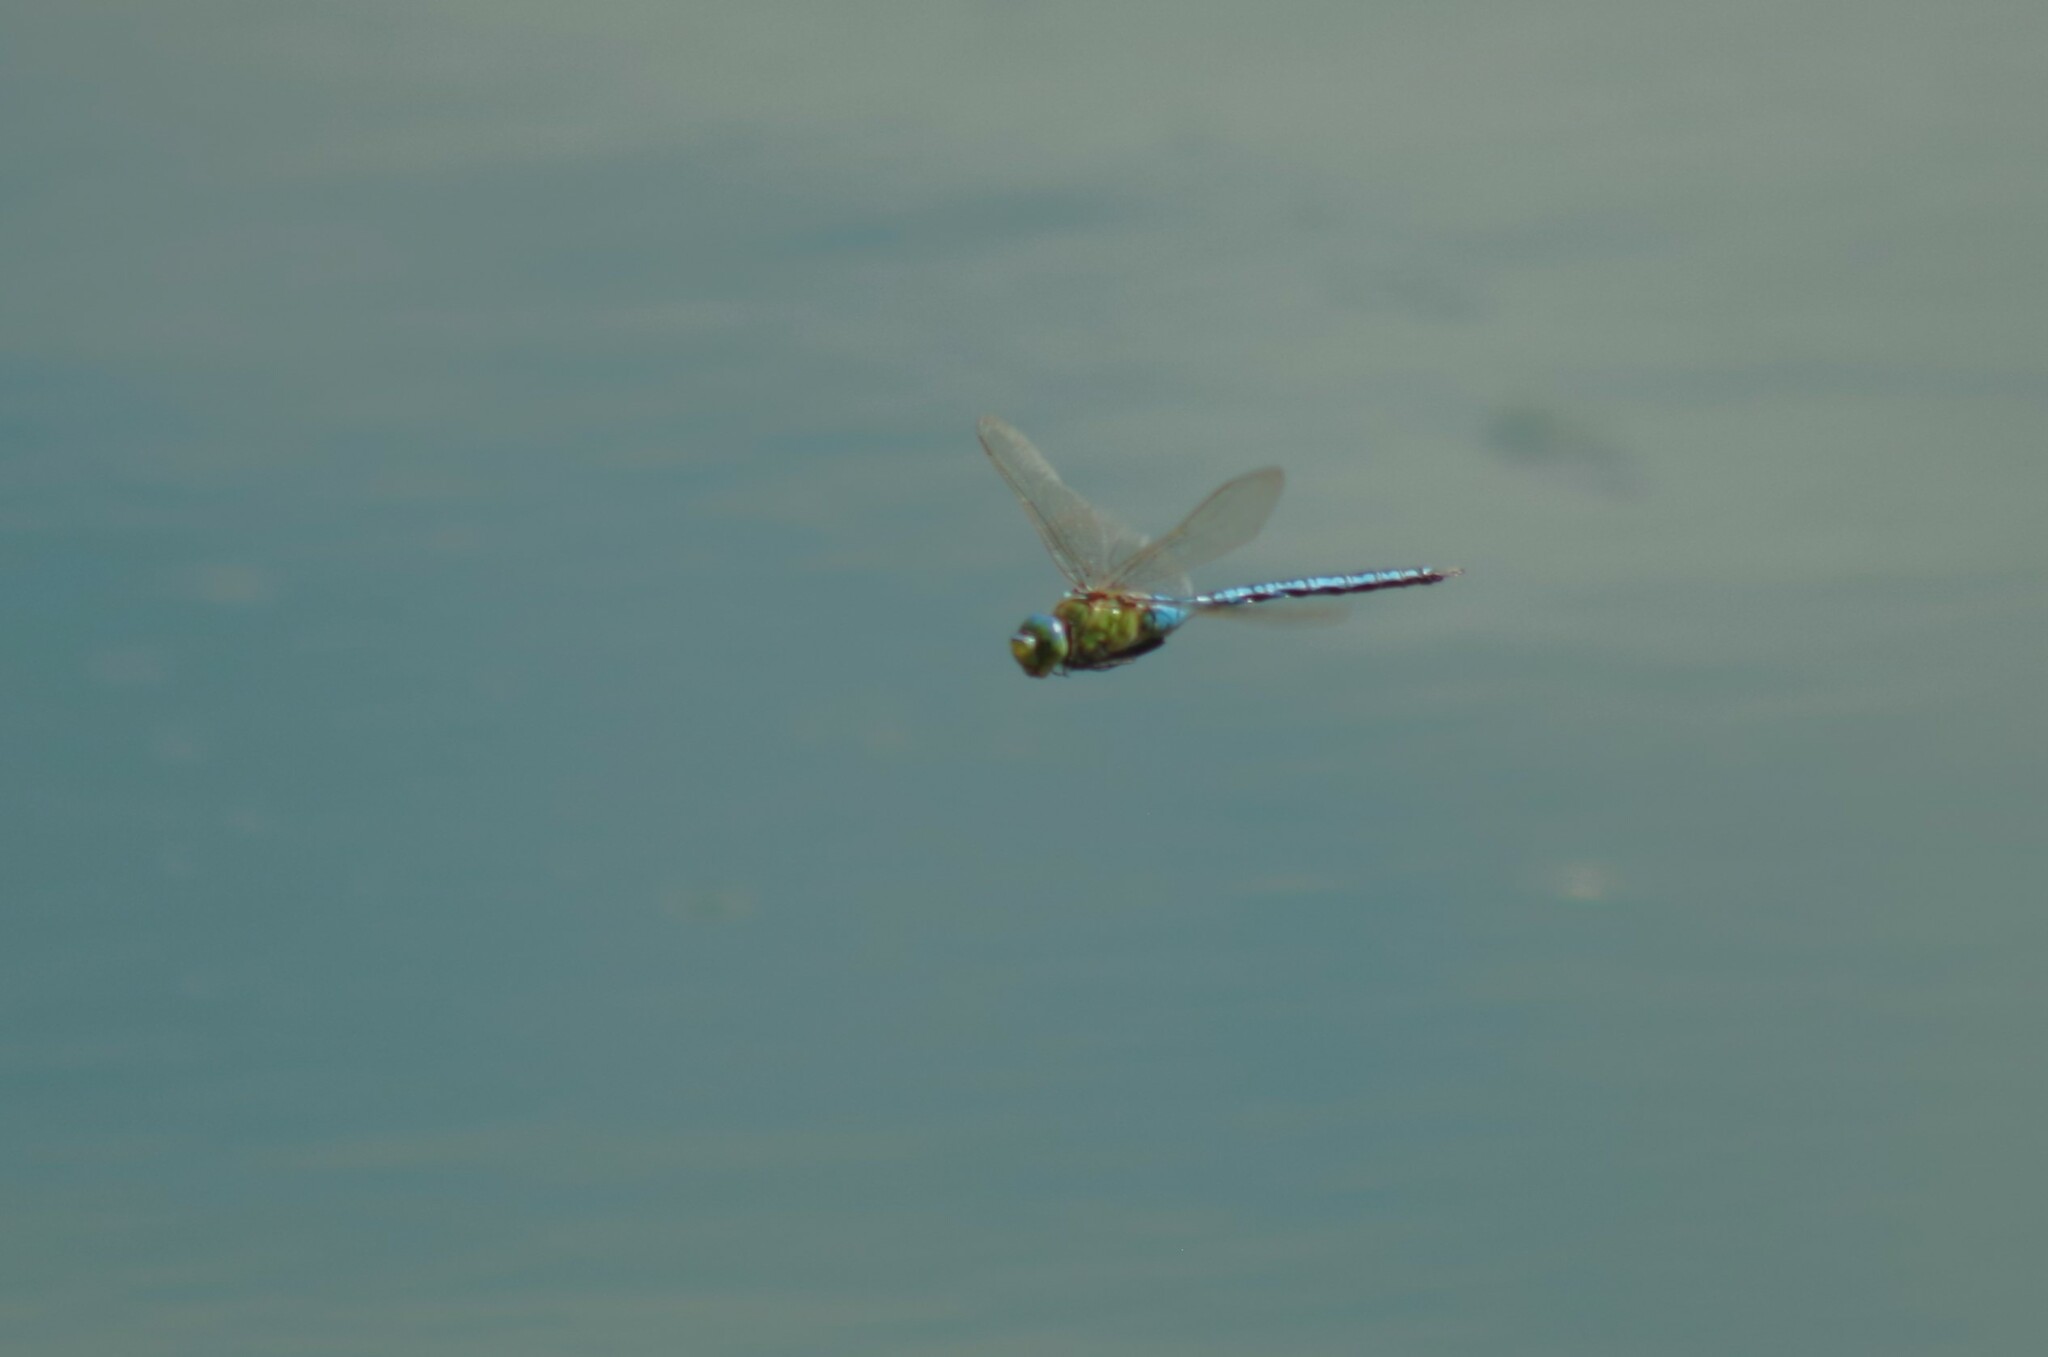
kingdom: Animalia
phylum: Arthropoda
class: Insecta
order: Odonata
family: Aeshnidae
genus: Anax
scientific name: Anax imperator
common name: Emperor dragonfly
